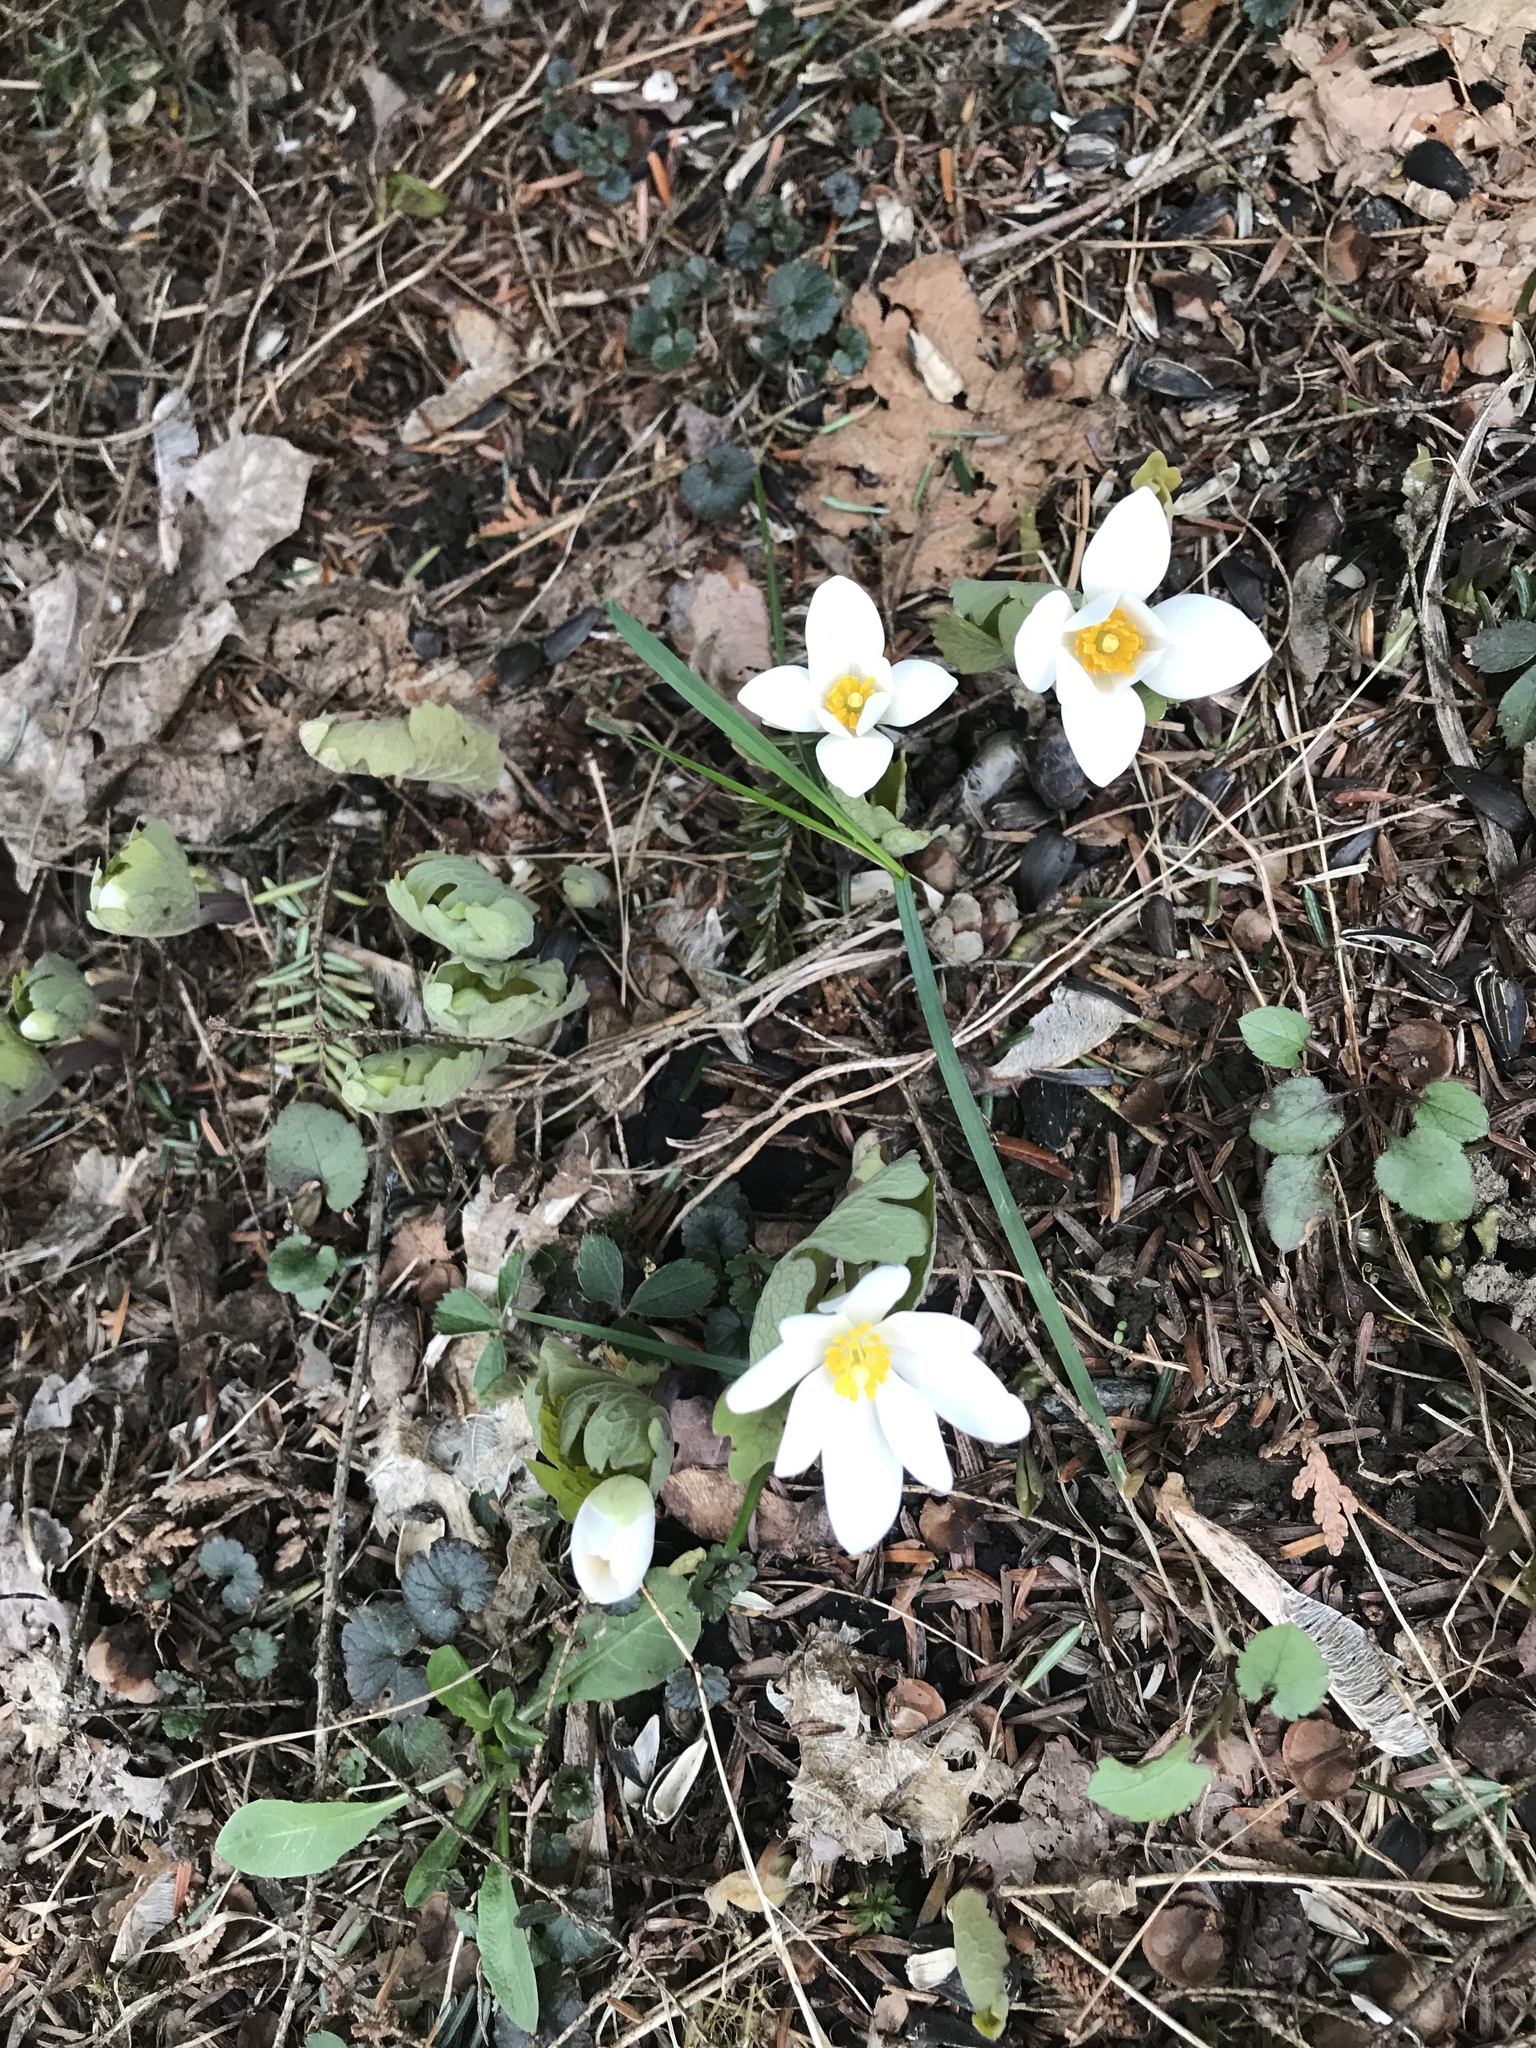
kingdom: Plantae
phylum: Tracheophyta
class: Magnoliopsida
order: Ranunculales
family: Papaveraceae
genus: Sanguinaria
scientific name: Sanguinaria canadensis
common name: Bloodroot
